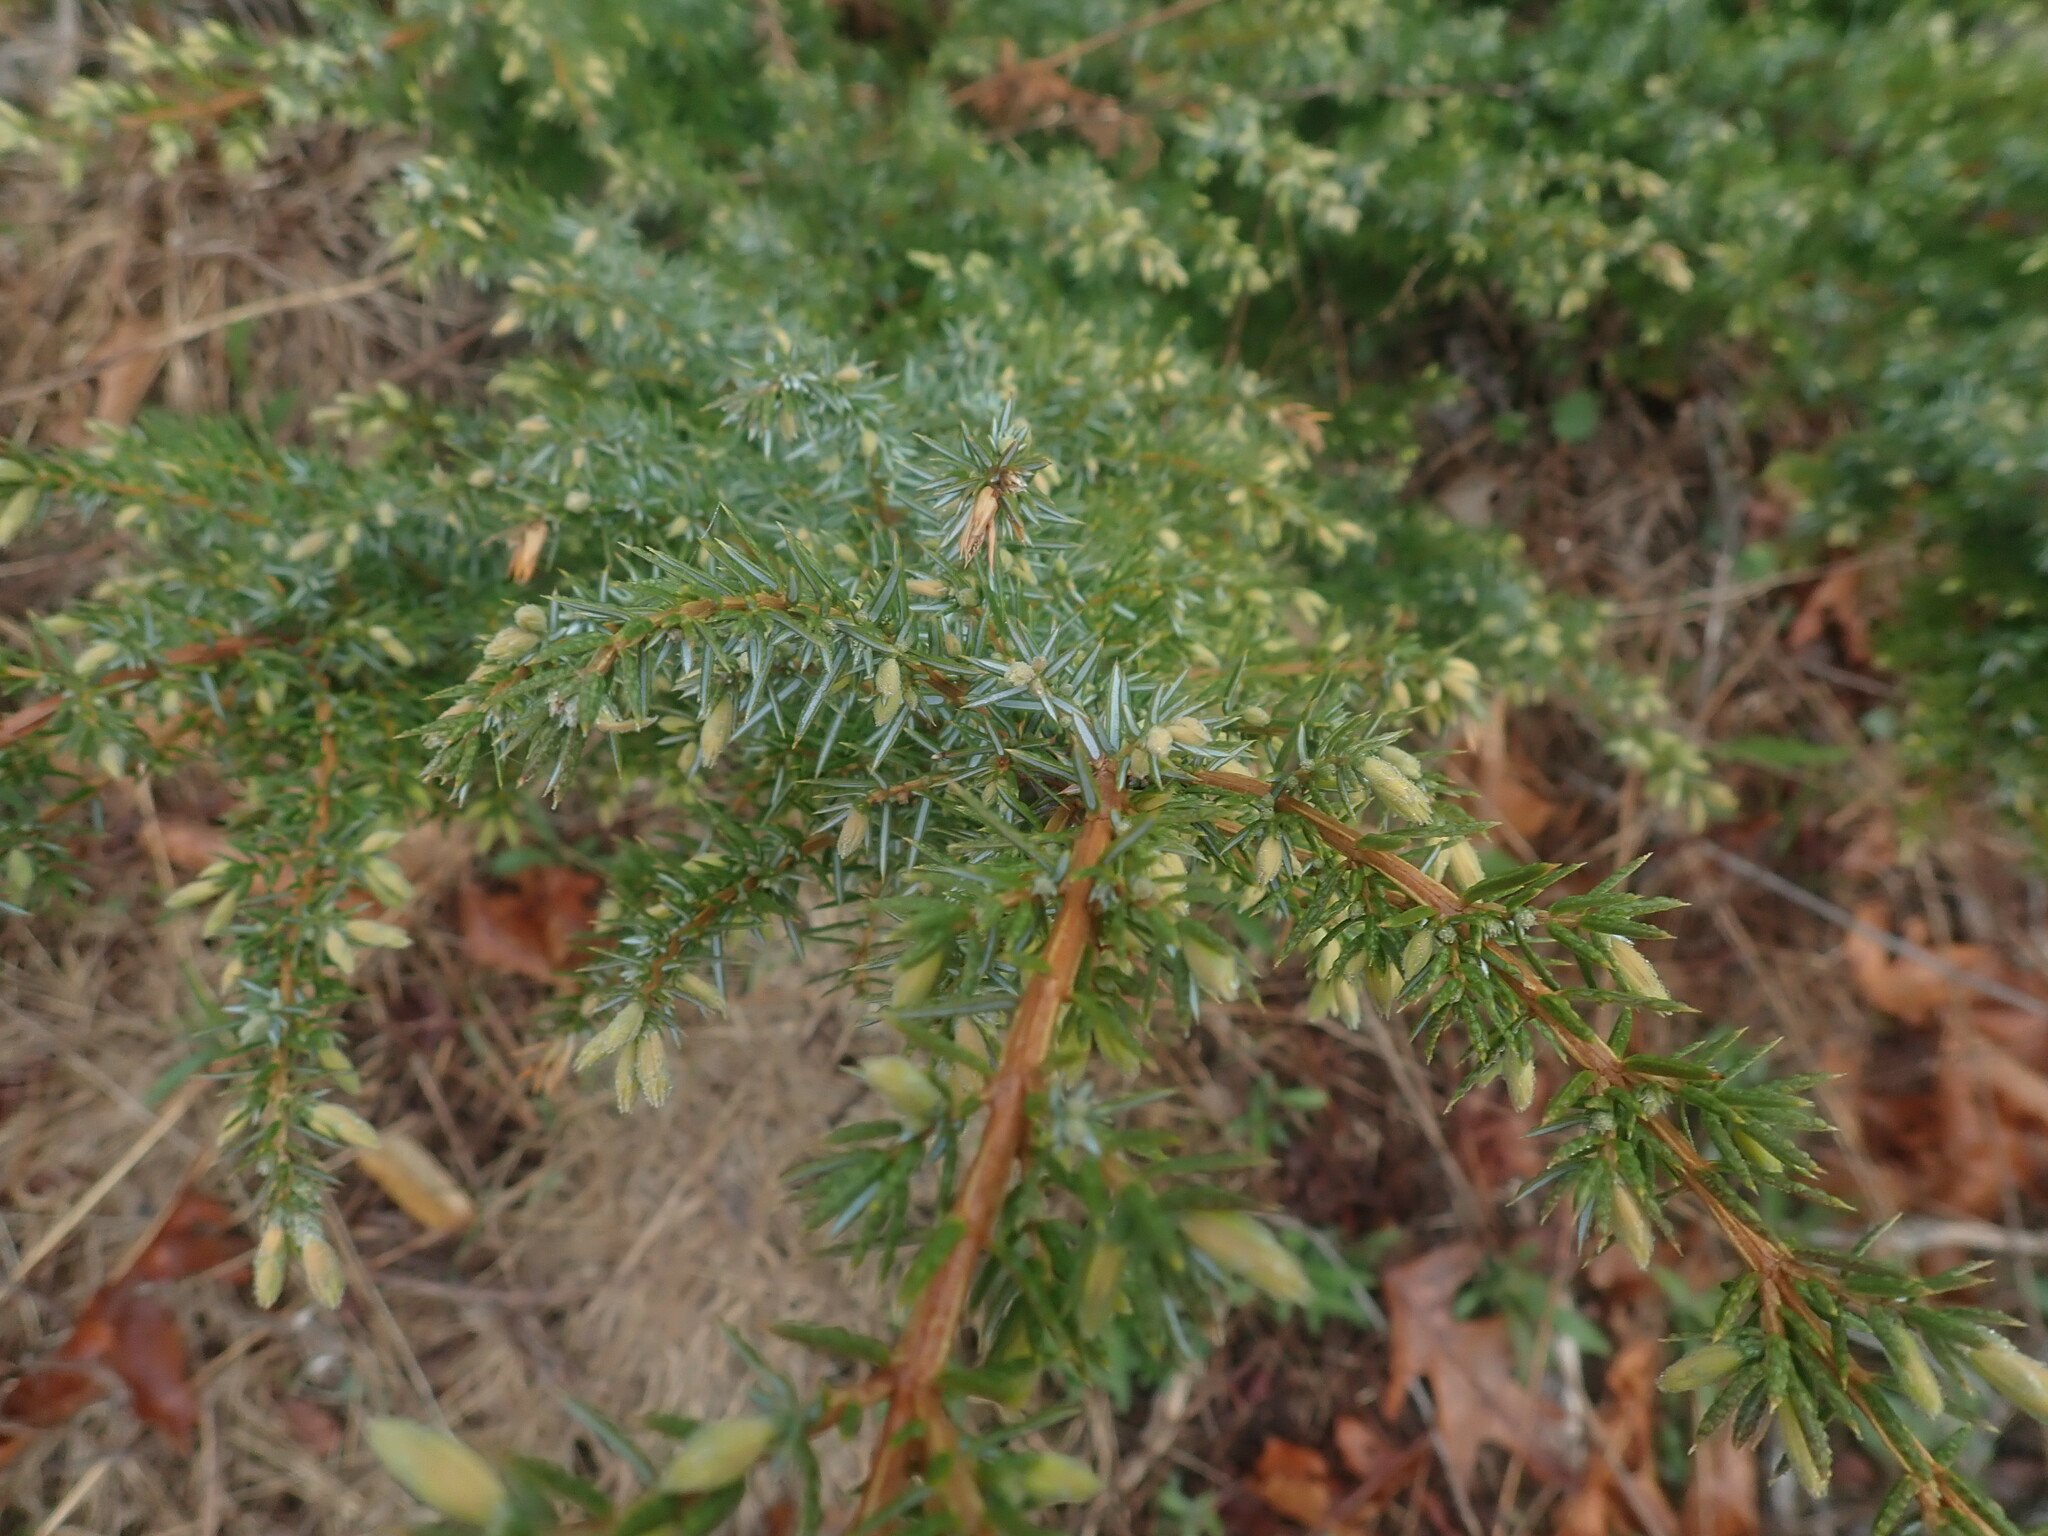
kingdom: Plantae
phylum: Tracheophyta
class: Pinopsida
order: Pinales
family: Cupressaceae
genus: Juniperus
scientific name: Juniperus communis
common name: Common juniper
